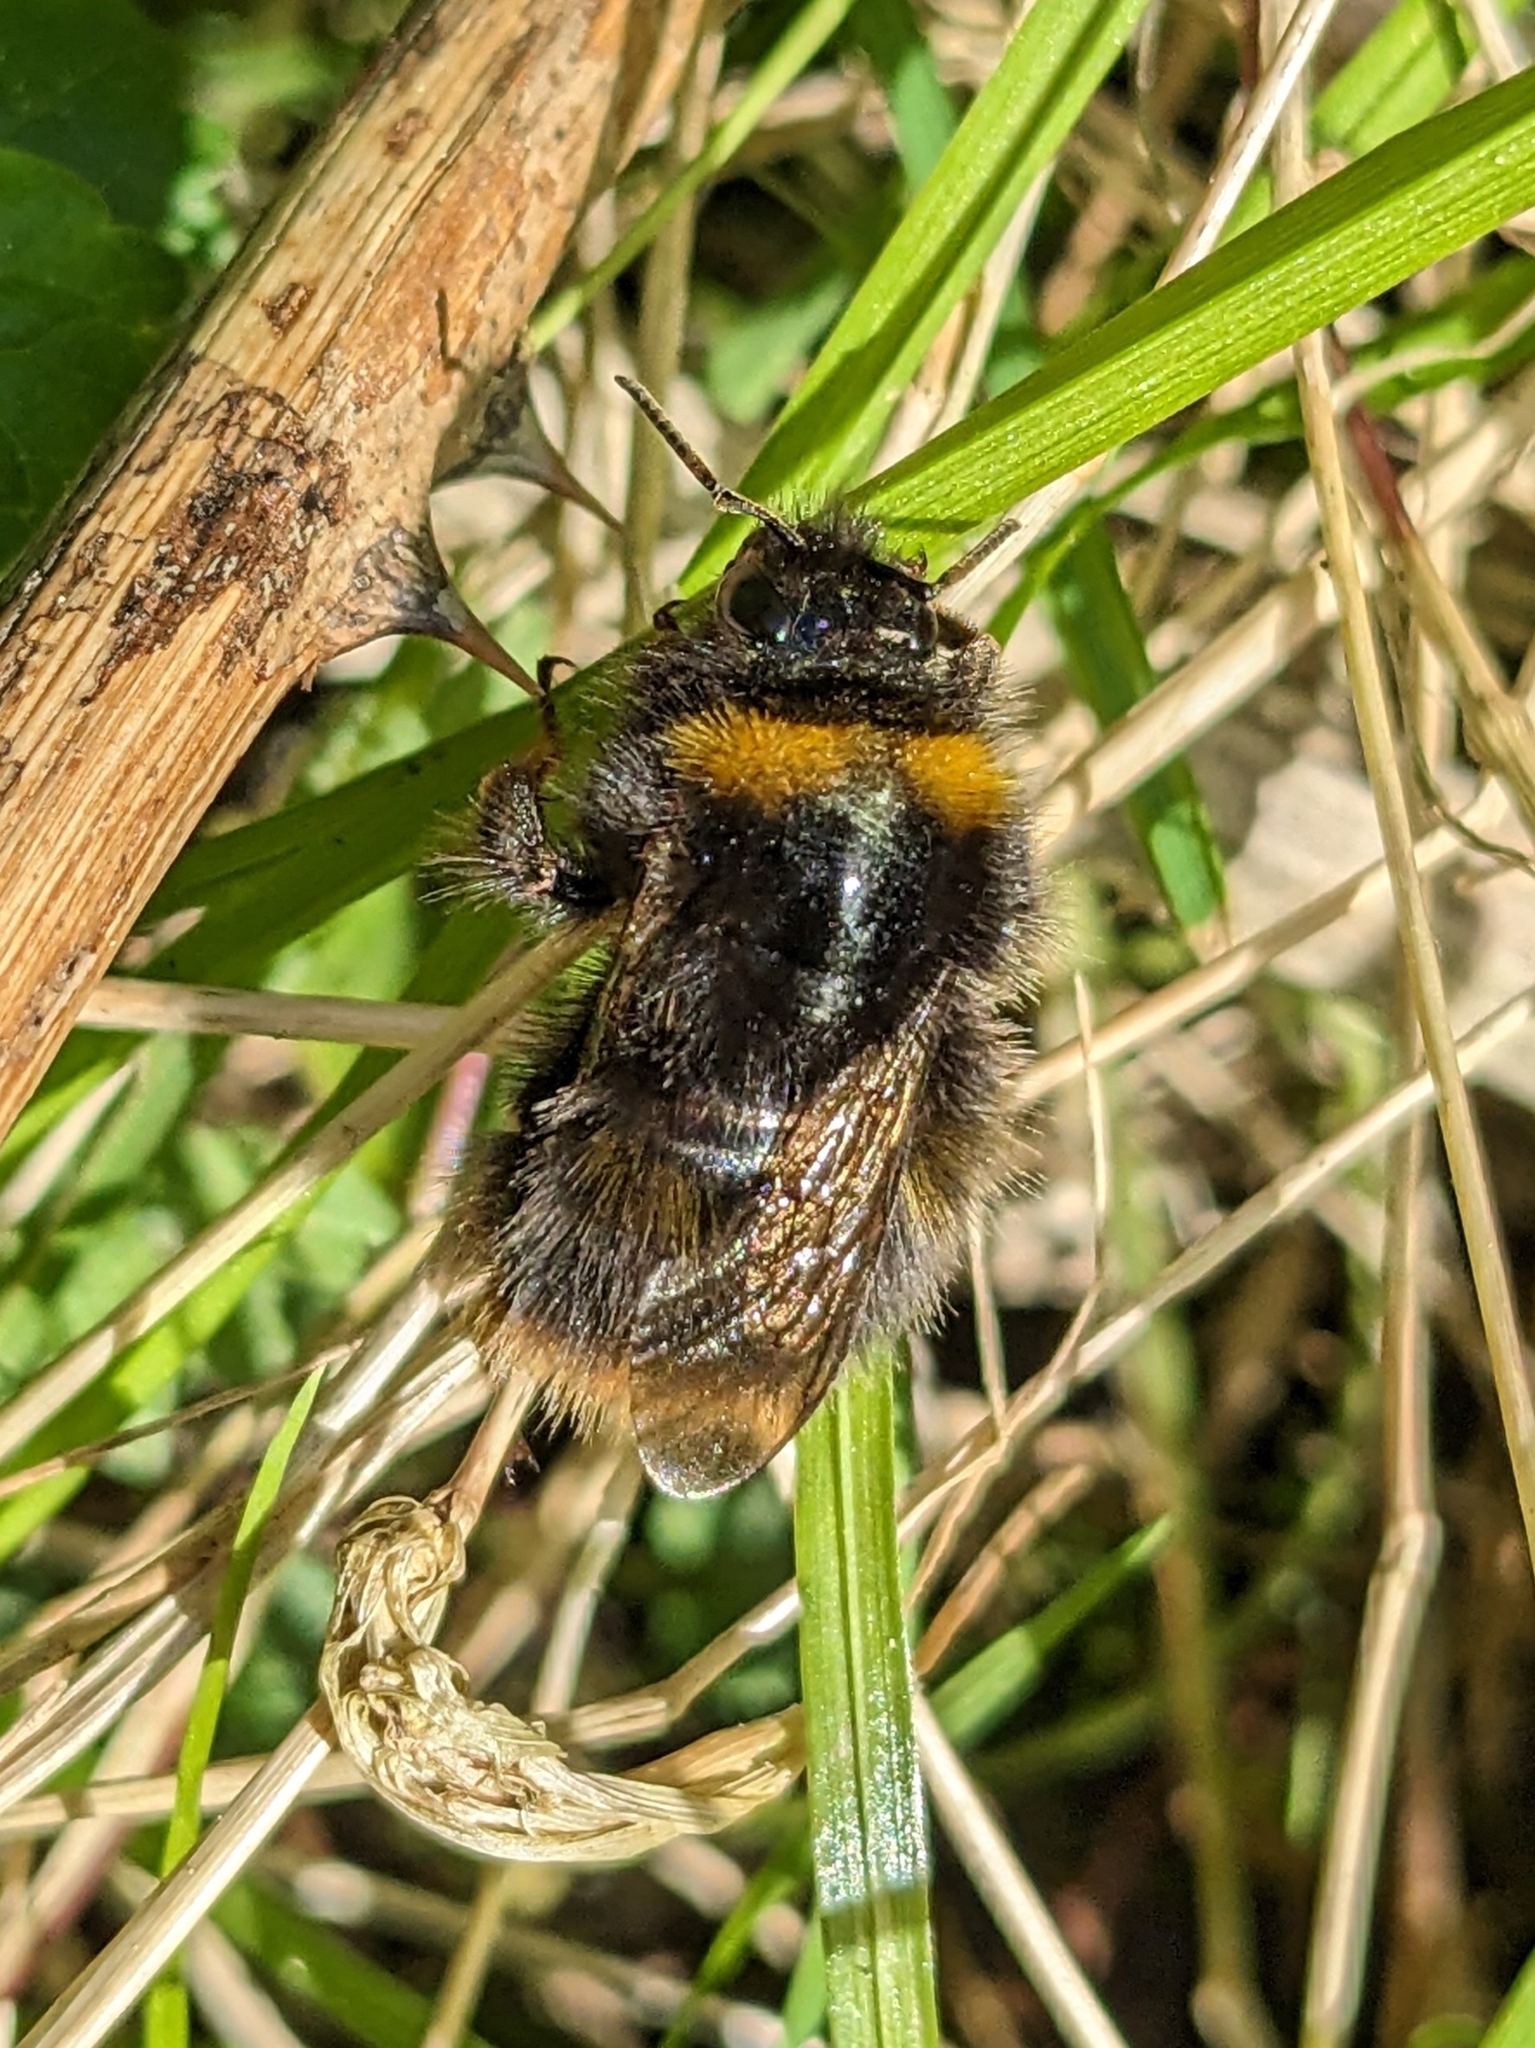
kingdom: Animalia
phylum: Arthropoda
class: Insecta
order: Hymenoptera
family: Apidae
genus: Bombus
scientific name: Bombus pratorum
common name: Early humble-bee
